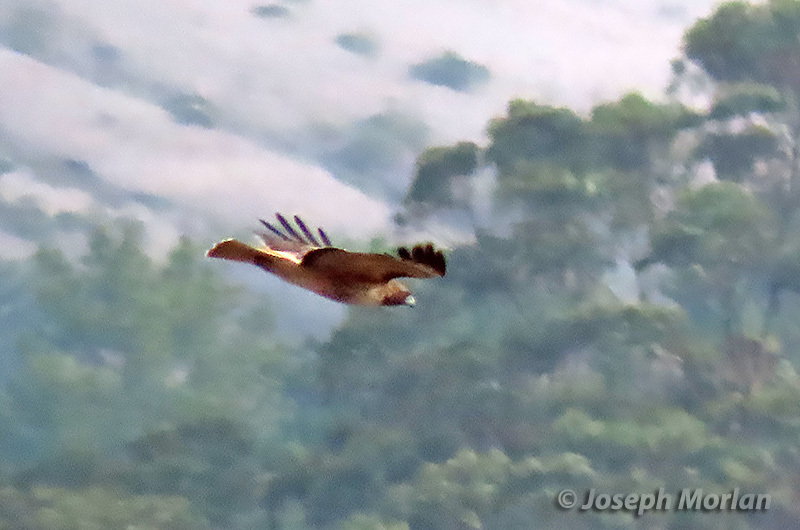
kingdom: Animalia
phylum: Chordata
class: Aves
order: Accipitriformes
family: Accipitridae
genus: Buteo
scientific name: Buteo jamaicensis
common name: Red-tailed hawk
